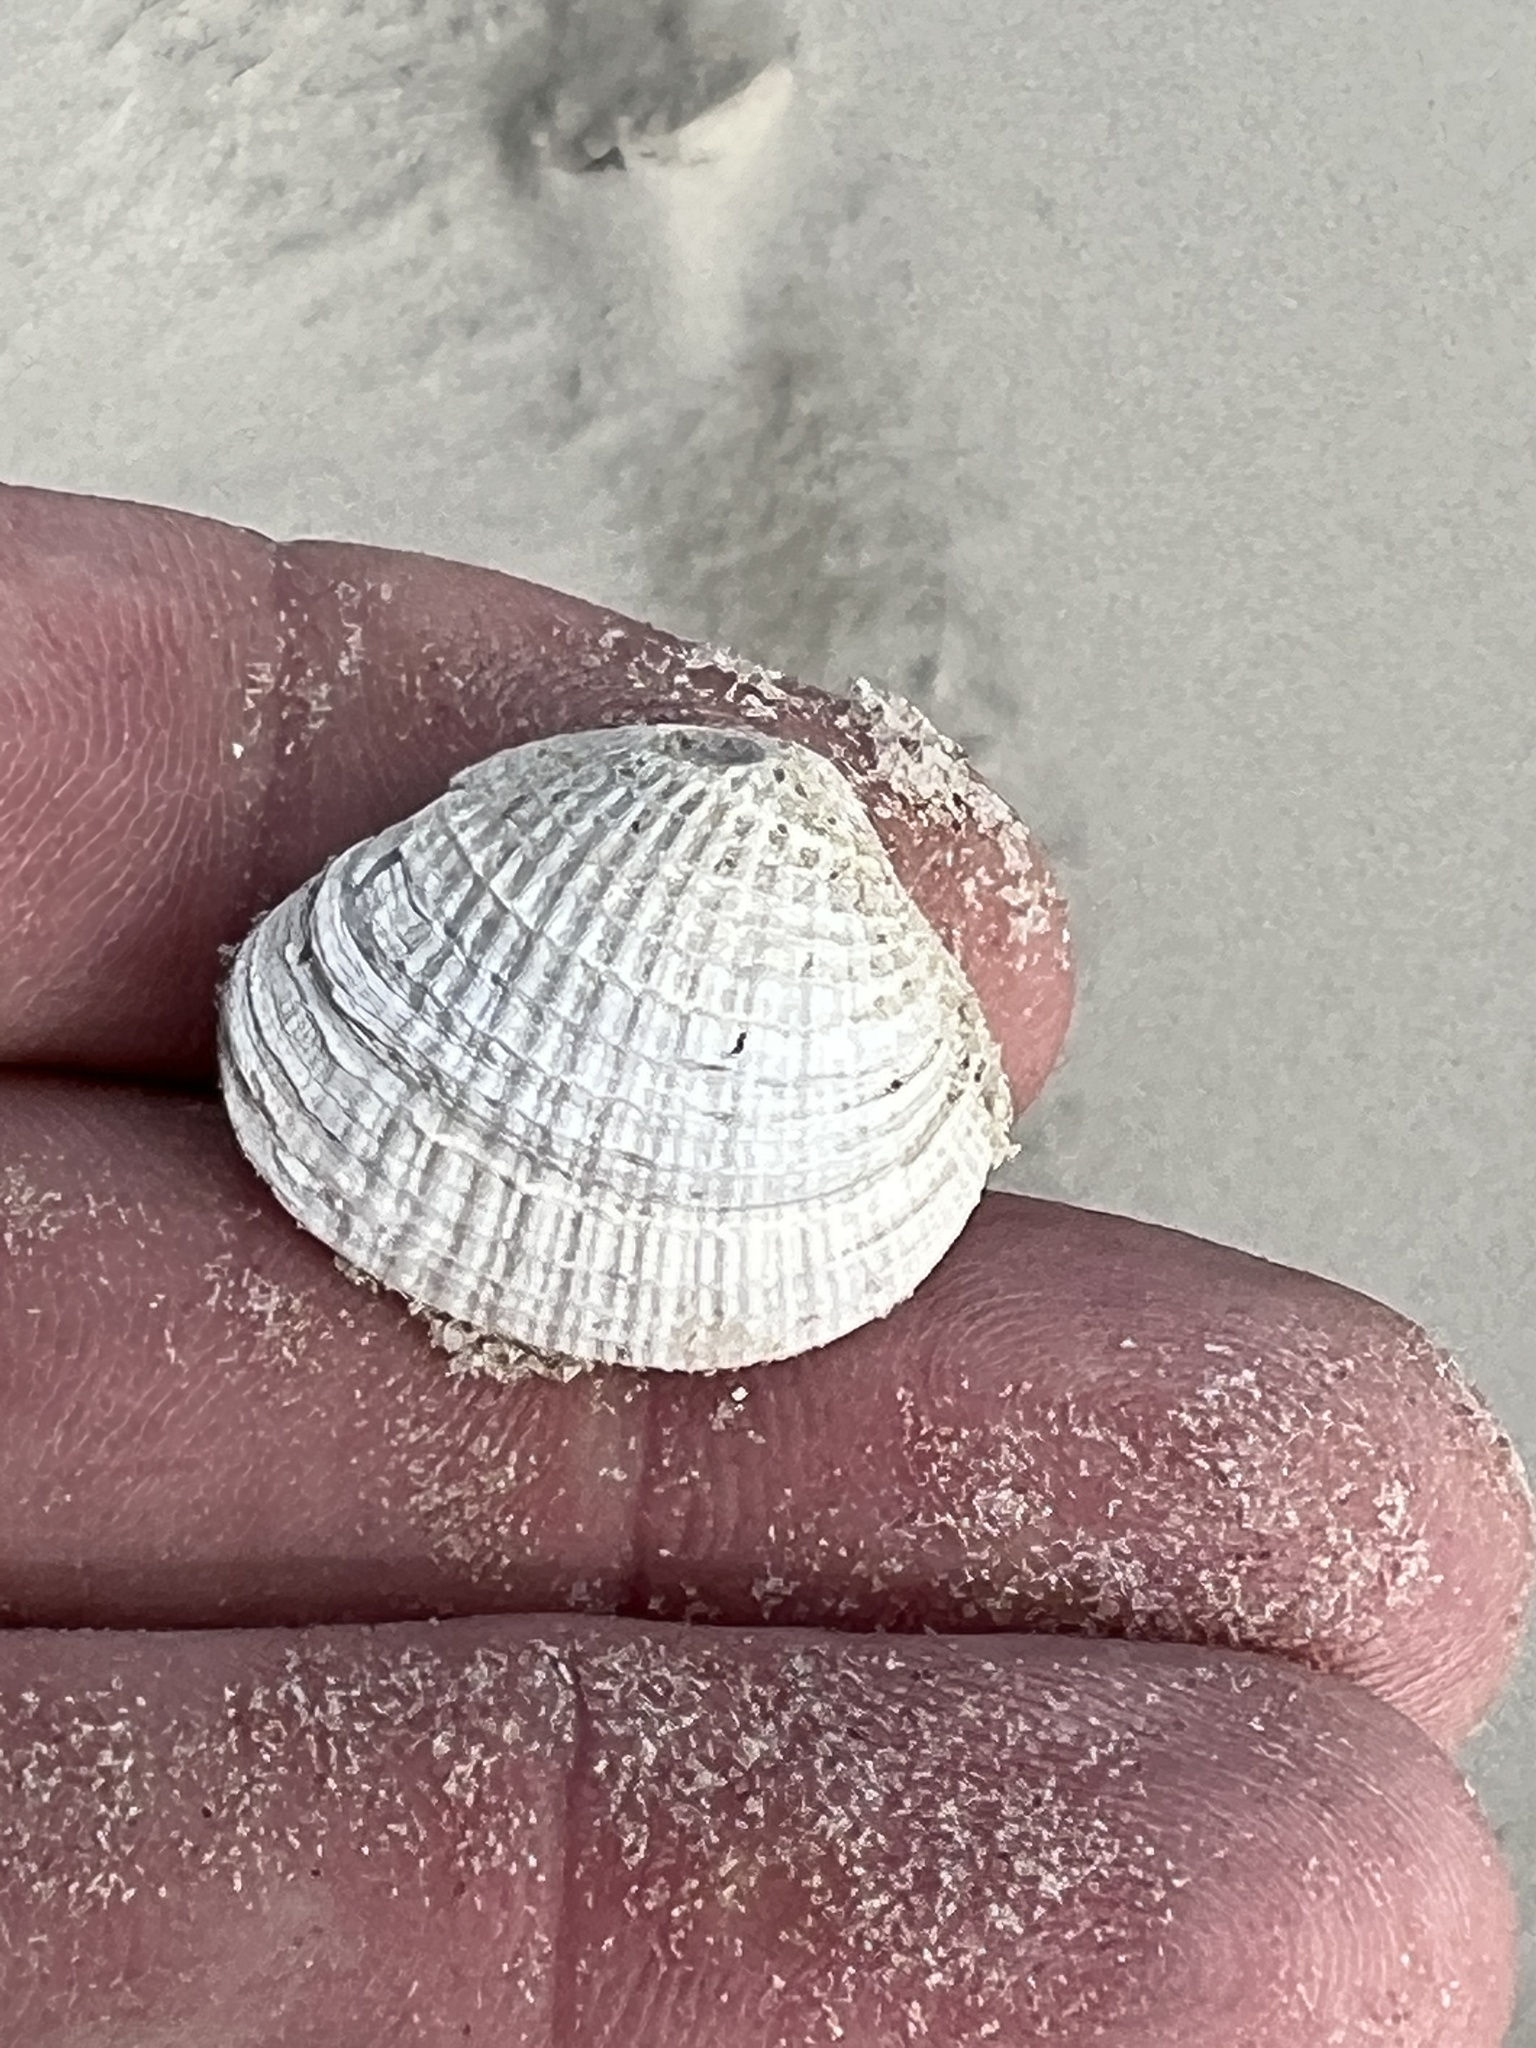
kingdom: Animalia
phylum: Mollusca
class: Bivalvia
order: Venerida
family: Veneridae
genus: Chione
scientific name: Chione elevata
